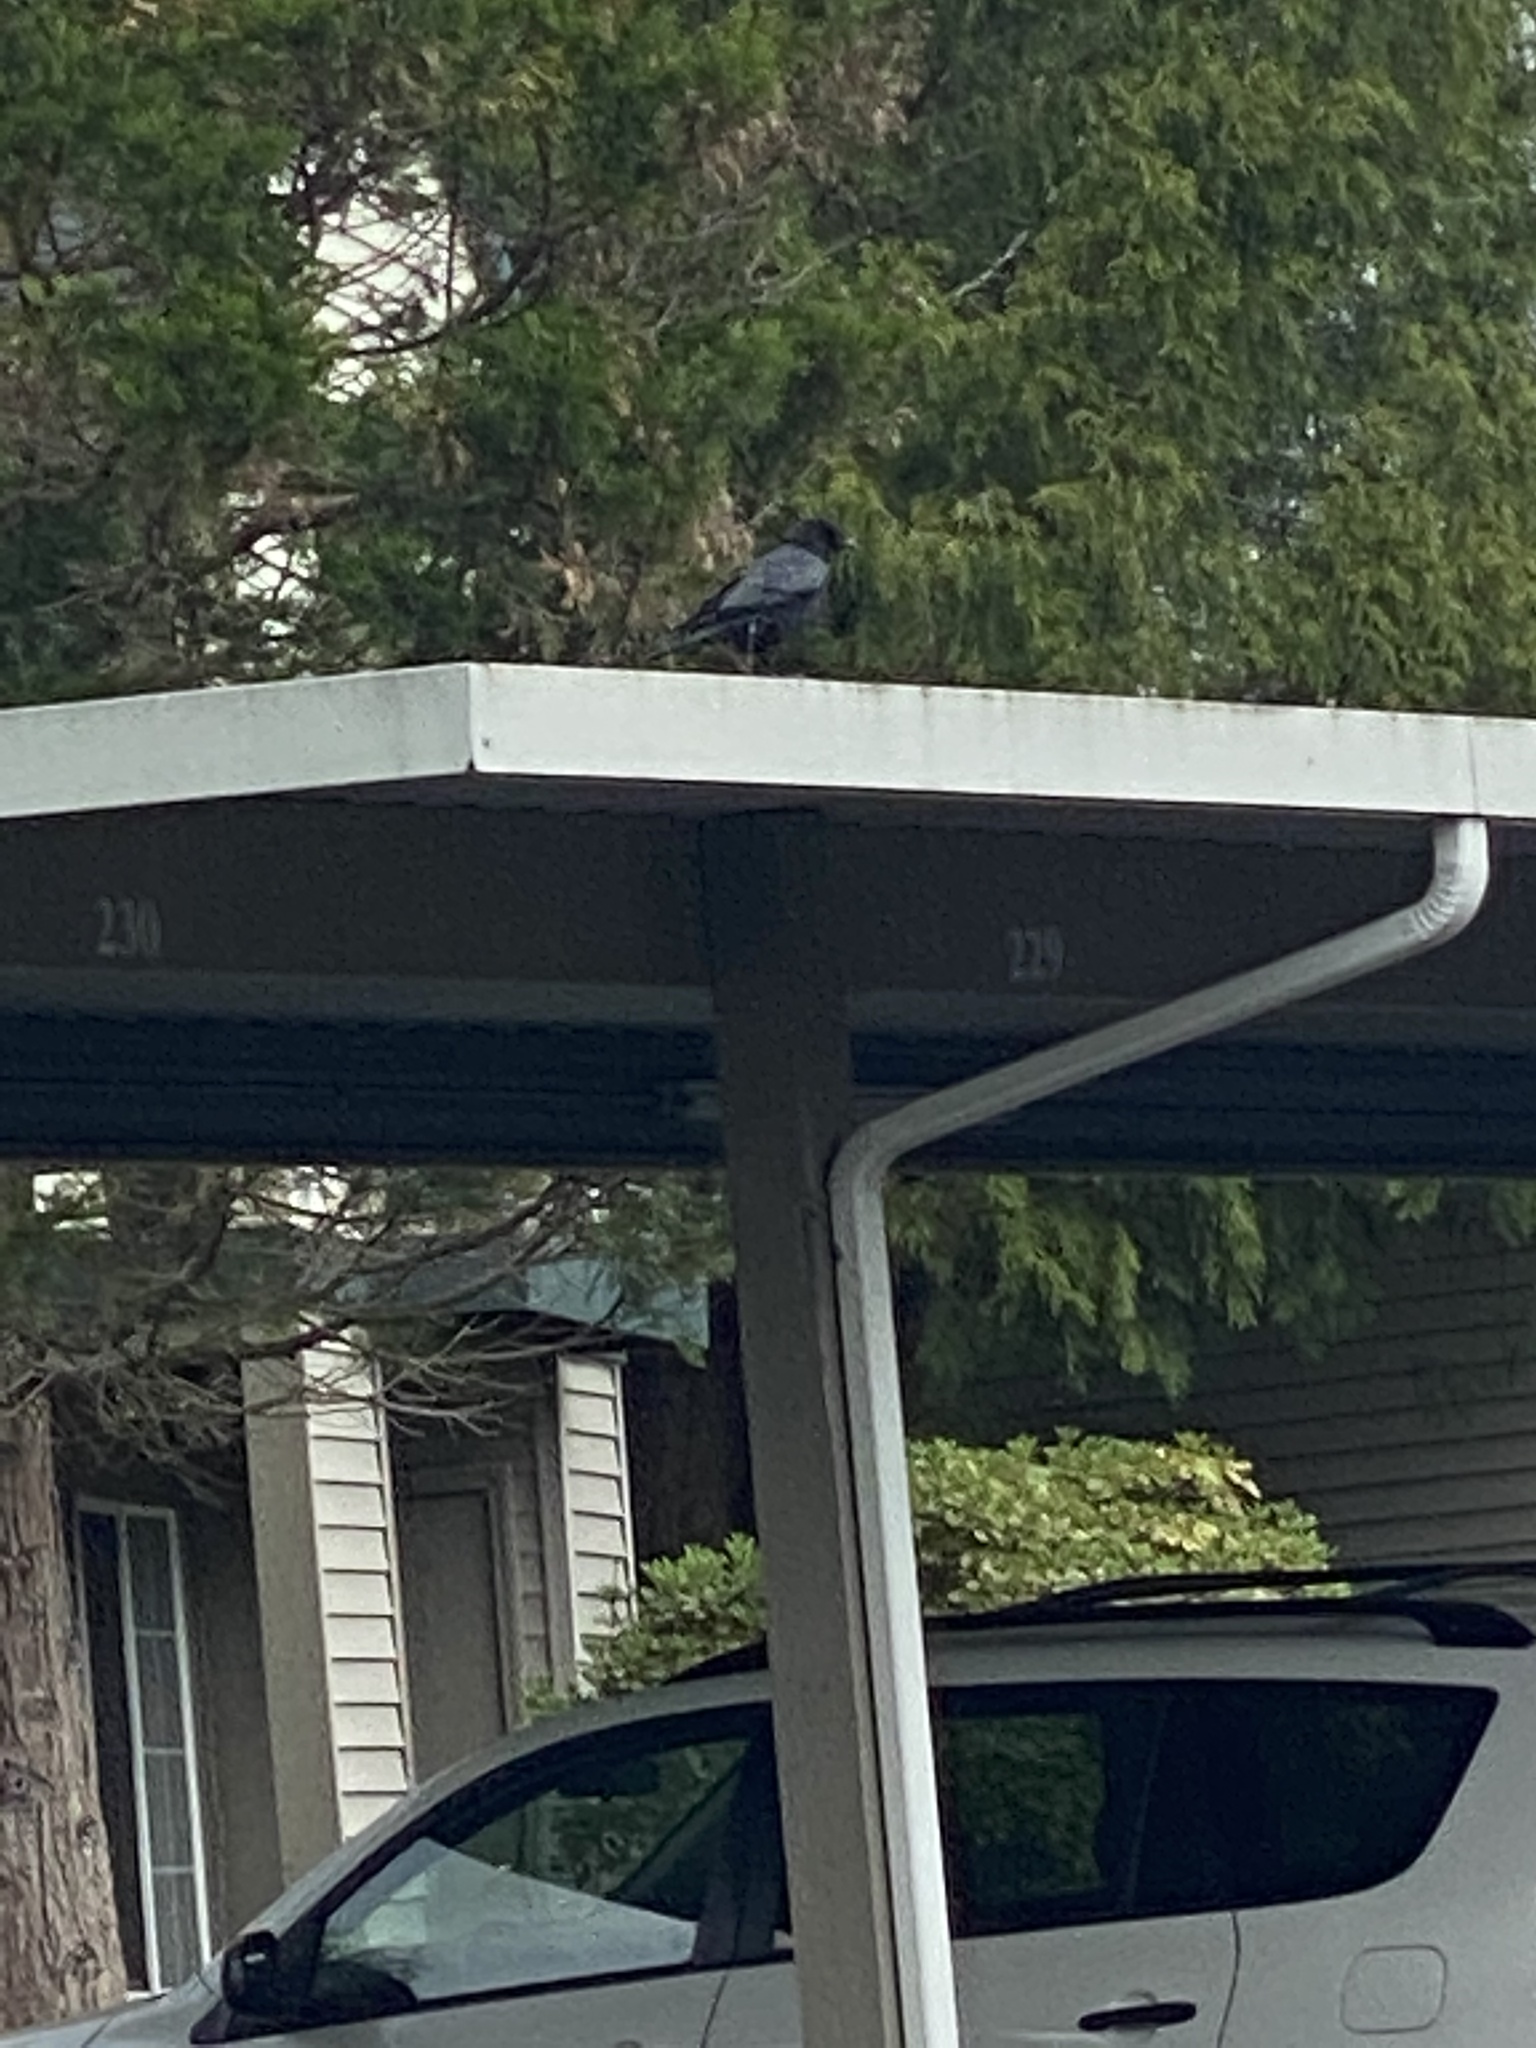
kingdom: Animalia
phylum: Chordata
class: Aves
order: Passeriformes
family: Corvidae
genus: Corvus
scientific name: Corvus brachyrhynchos
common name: American crow
